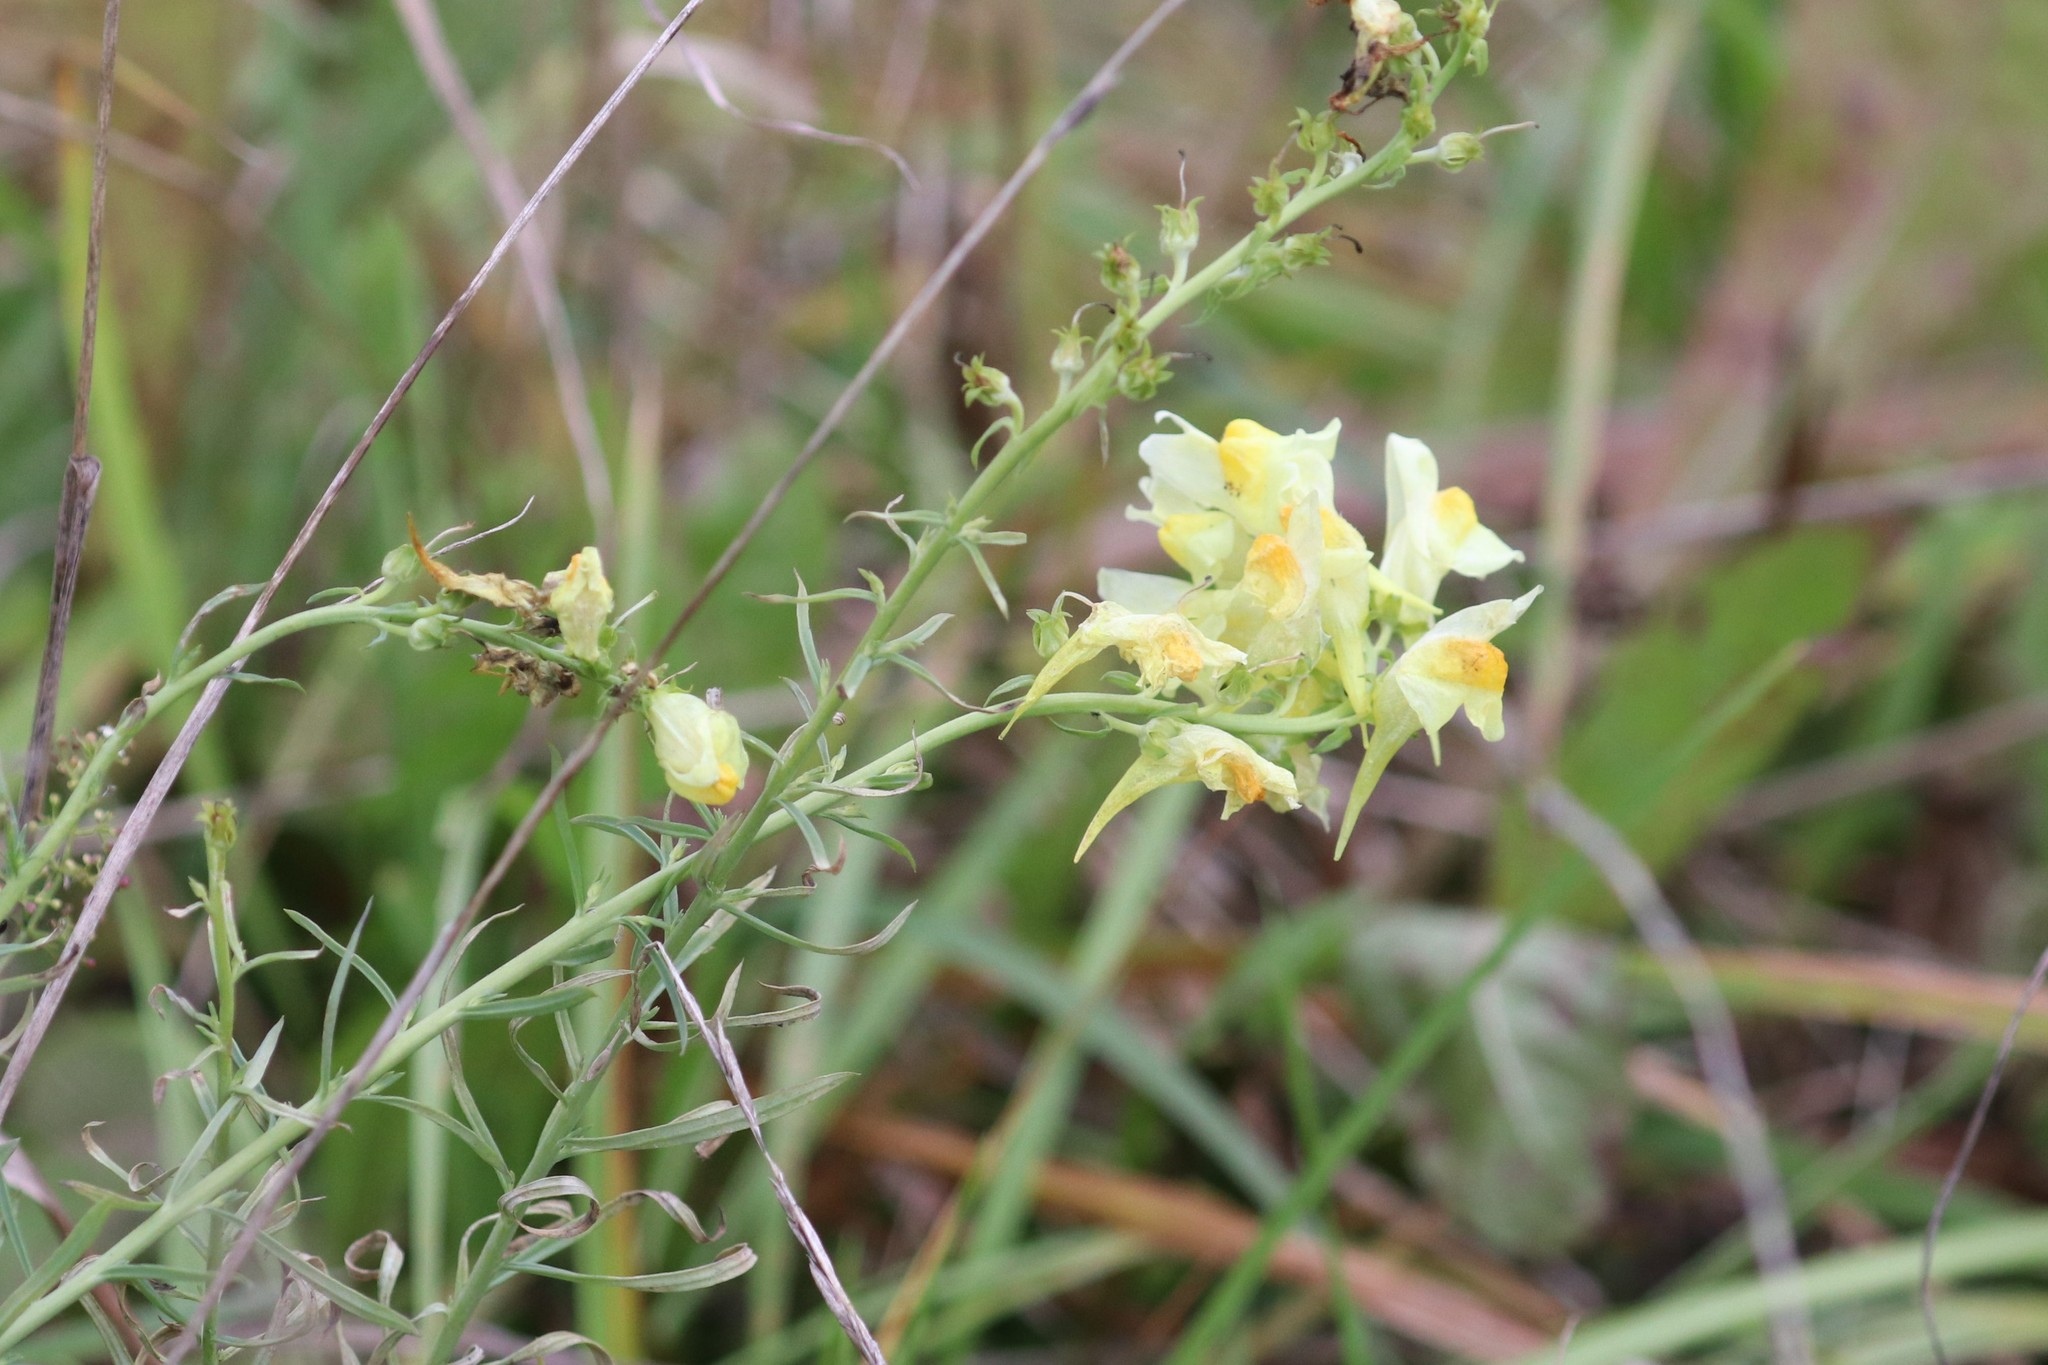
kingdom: Plantae
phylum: Tracheophyta
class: Magnoliopsida
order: Lamiales
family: Plantaginaceae
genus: Linaria
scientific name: Linaria vulgaris
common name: Butter and eggs
